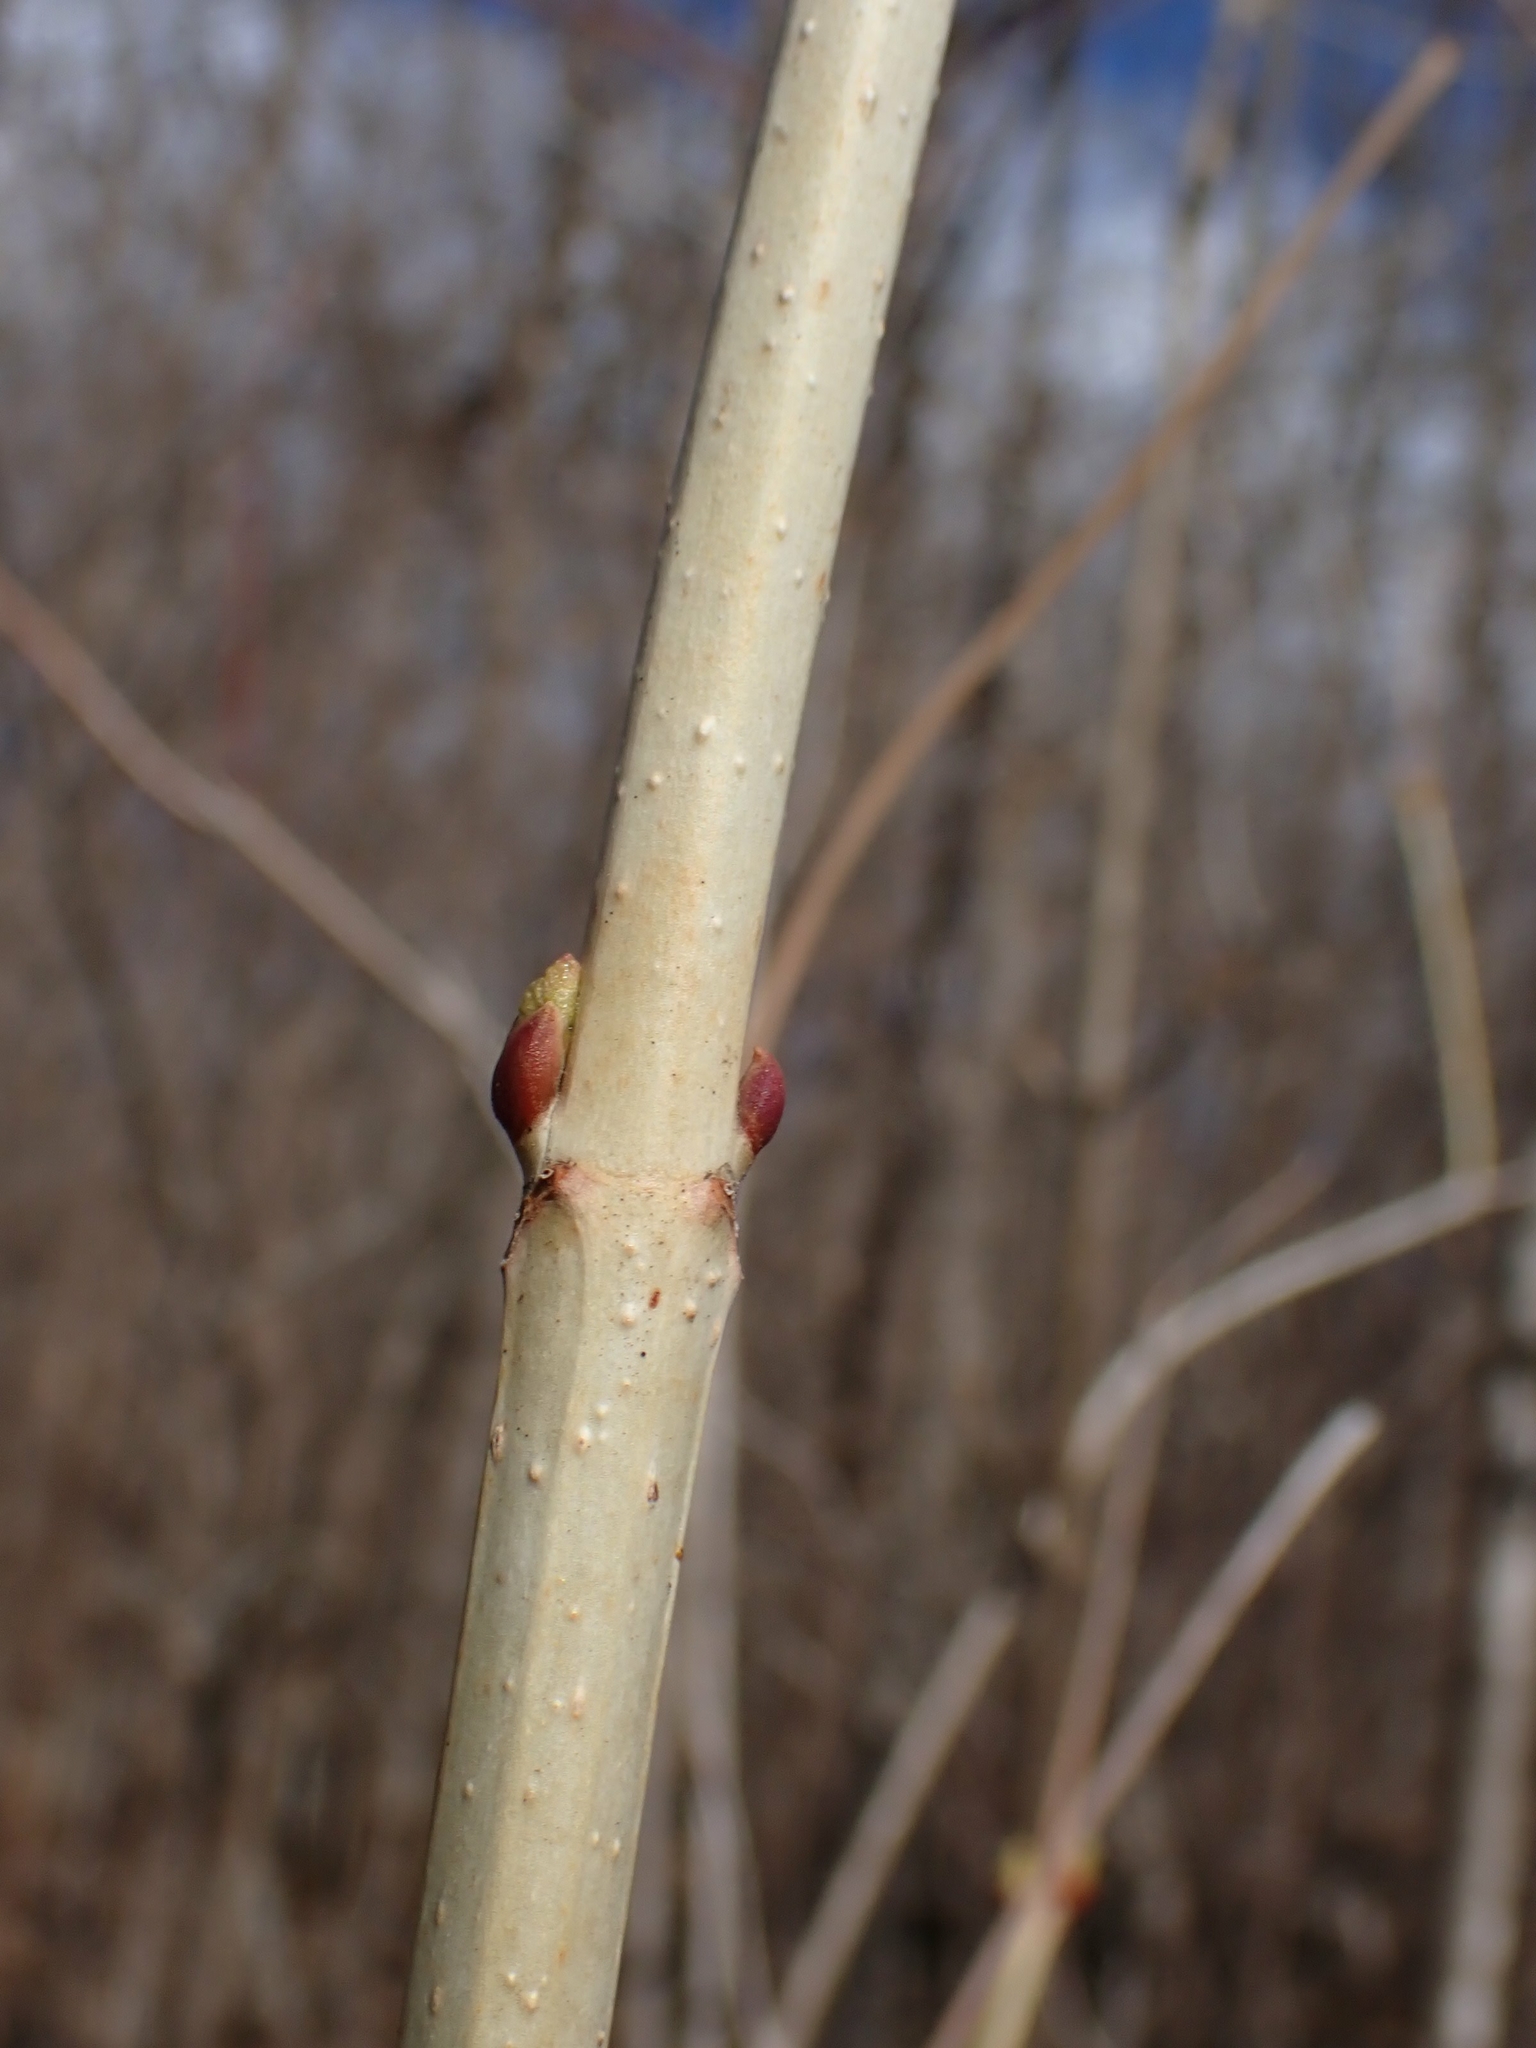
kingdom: Plantae
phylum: Tracheophyta
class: Magnoliopsida
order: Dipsacales
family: Viburnaceae
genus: Viburnum
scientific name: Viburnum opulus
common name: Guelder-rose
